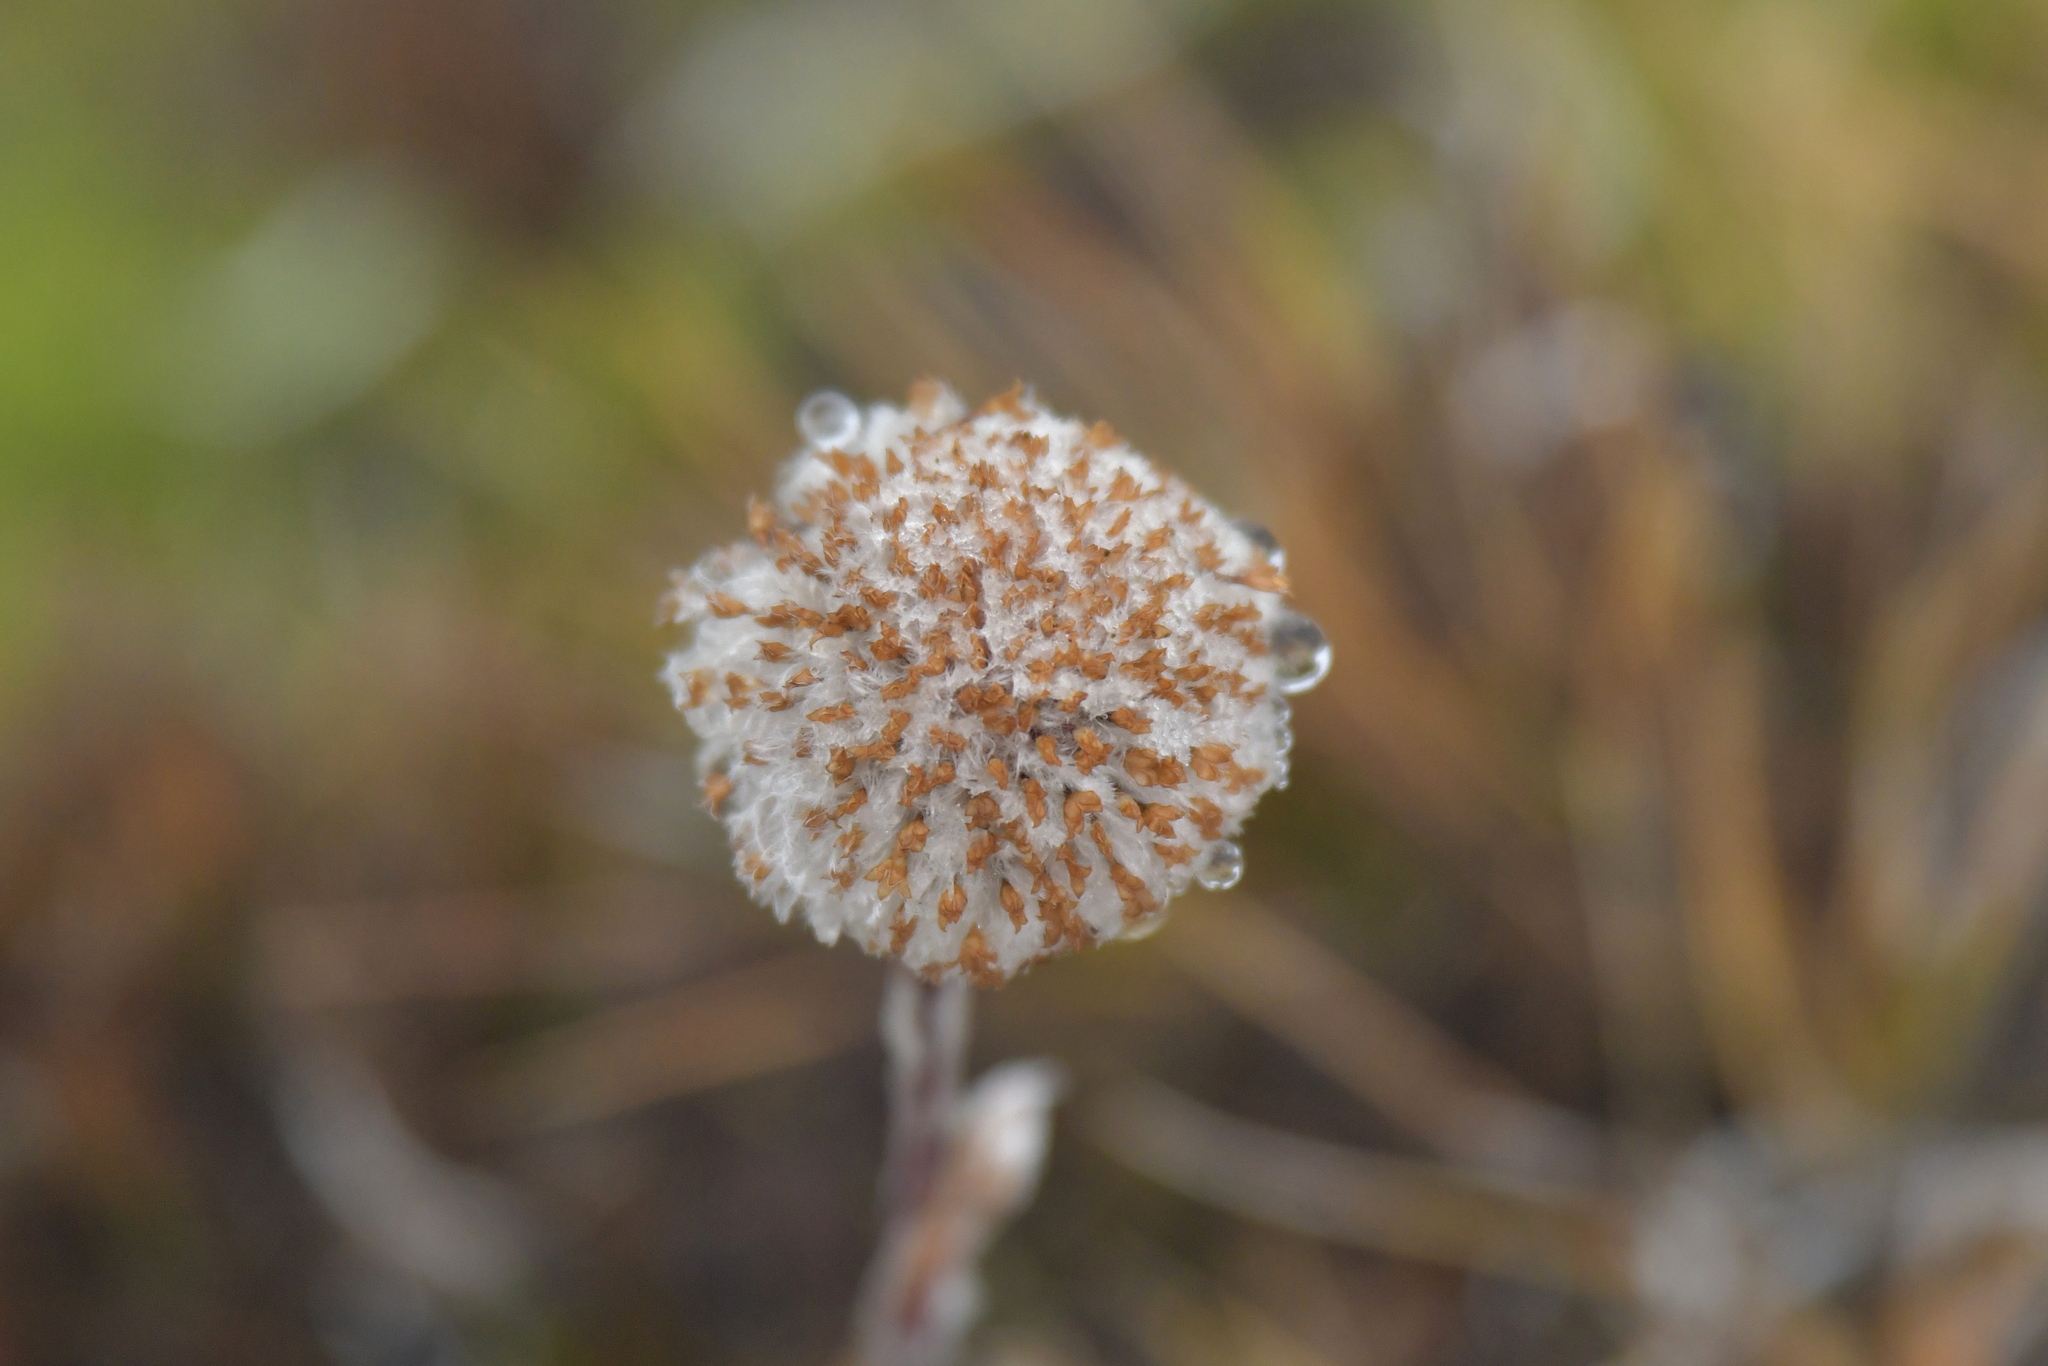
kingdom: Plantae
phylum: Tracheophyta
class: Magnoliopsida
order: Asterales
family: Asteraceae
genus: Craspedia
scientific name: Craspedia lanata
